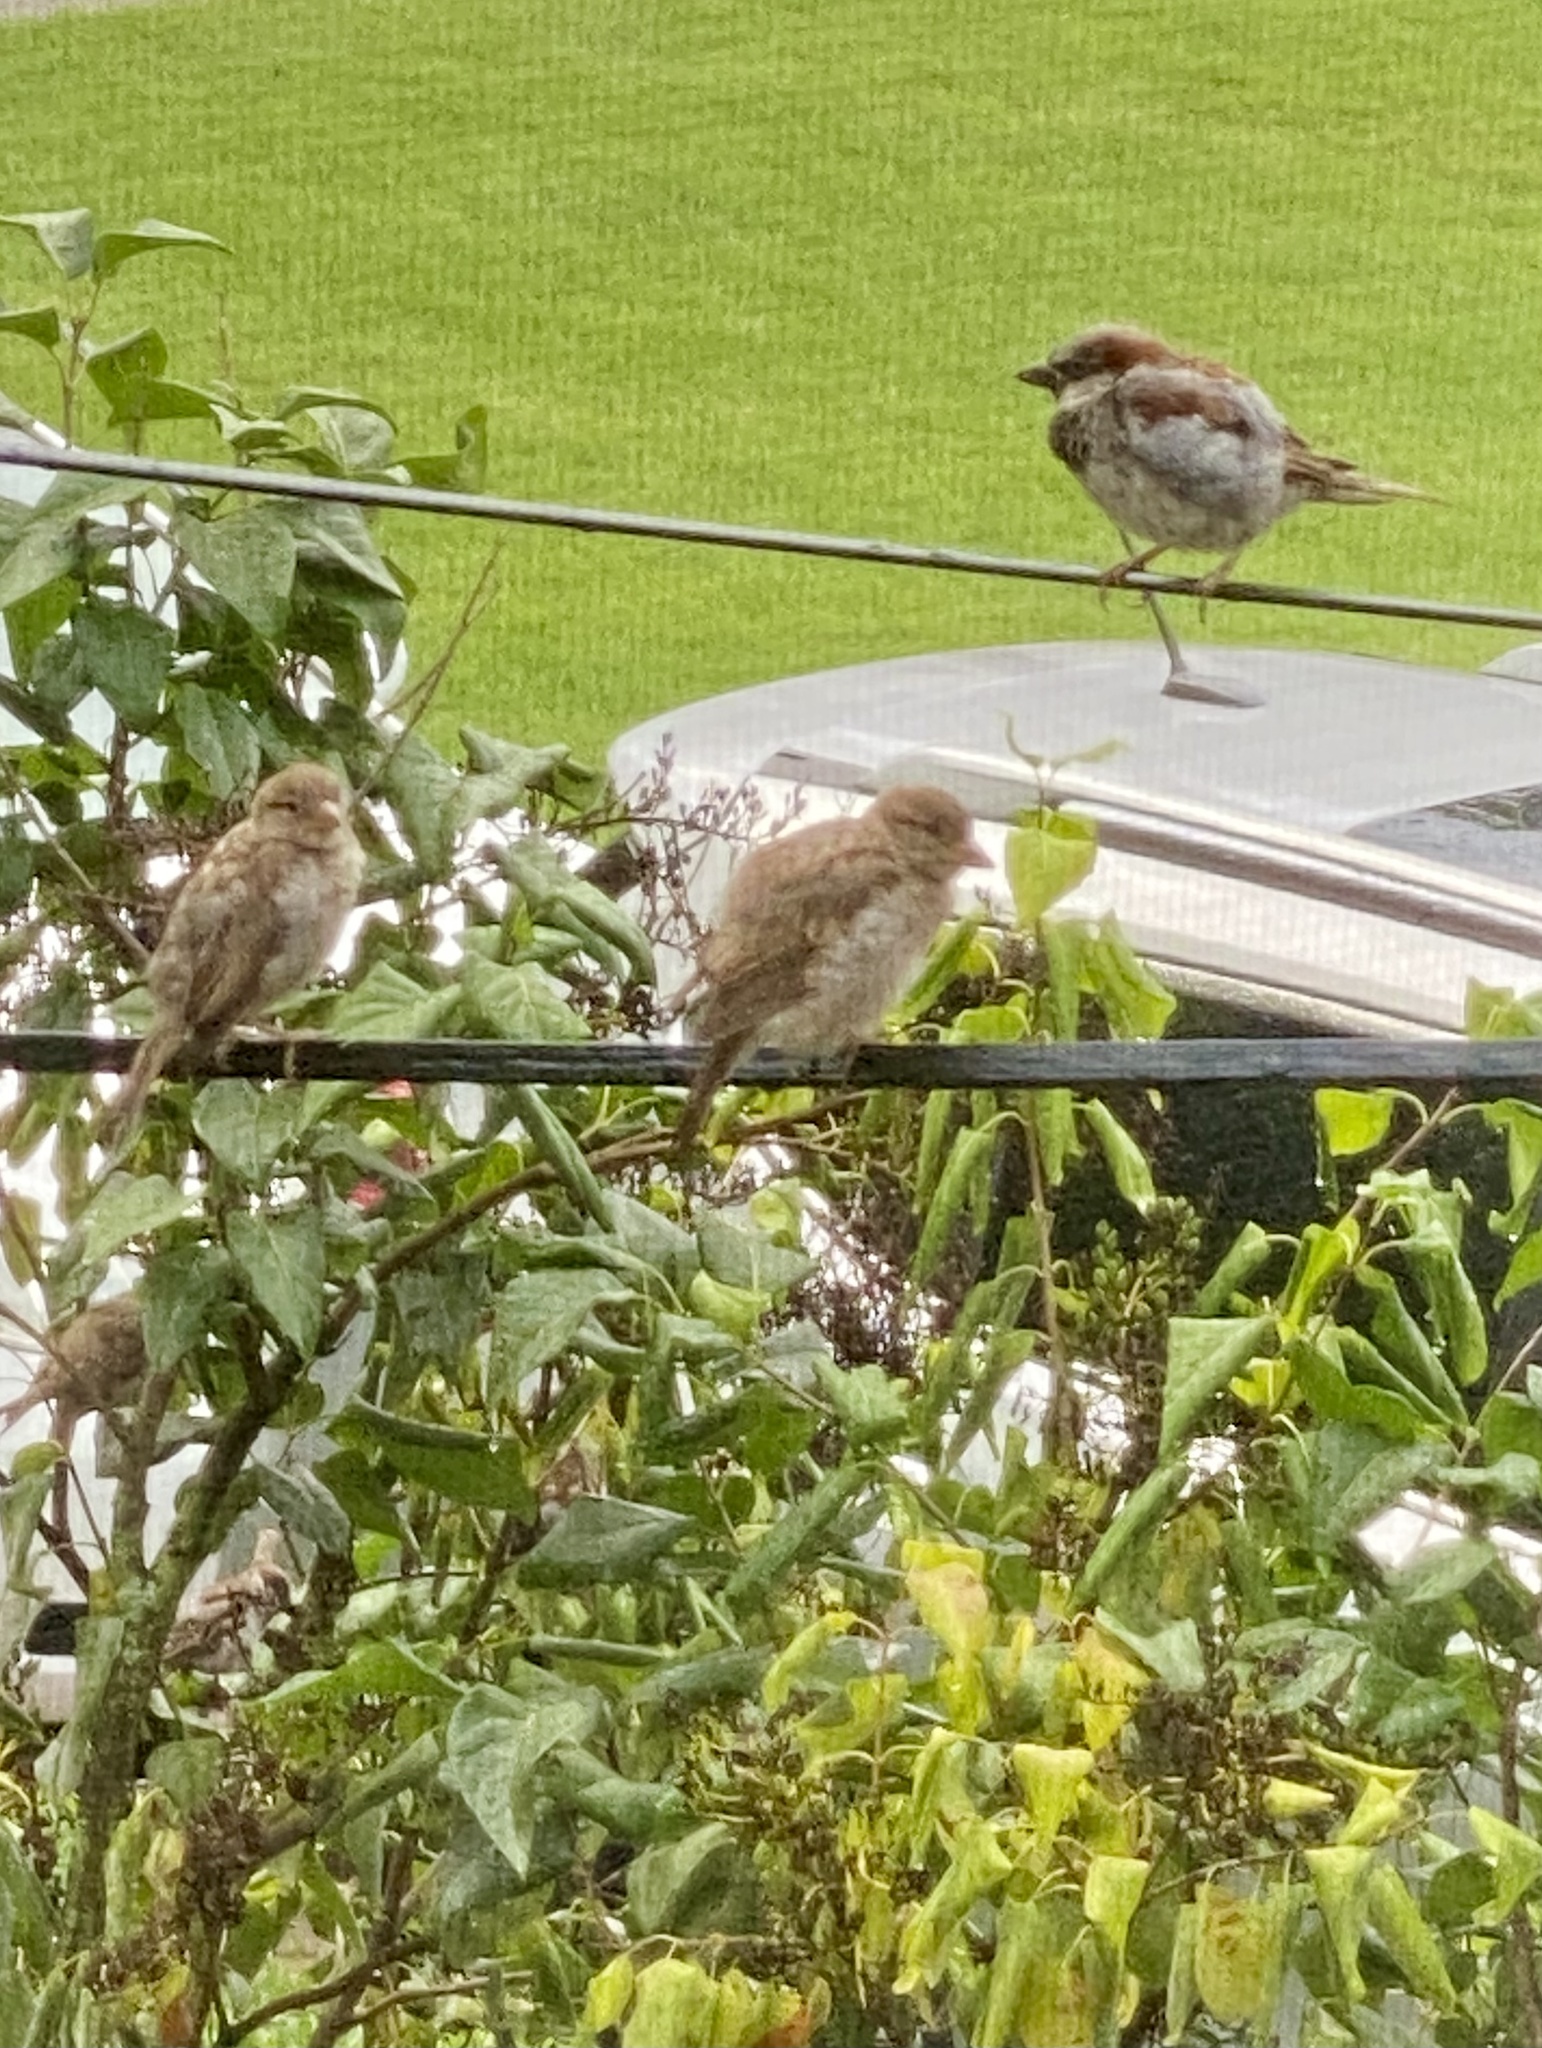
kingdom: Animalia
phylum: Chordata
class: Aves
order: Passeriformes
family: Passeridae
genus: Passer
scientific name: Passer domesticus
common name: House sparrow
